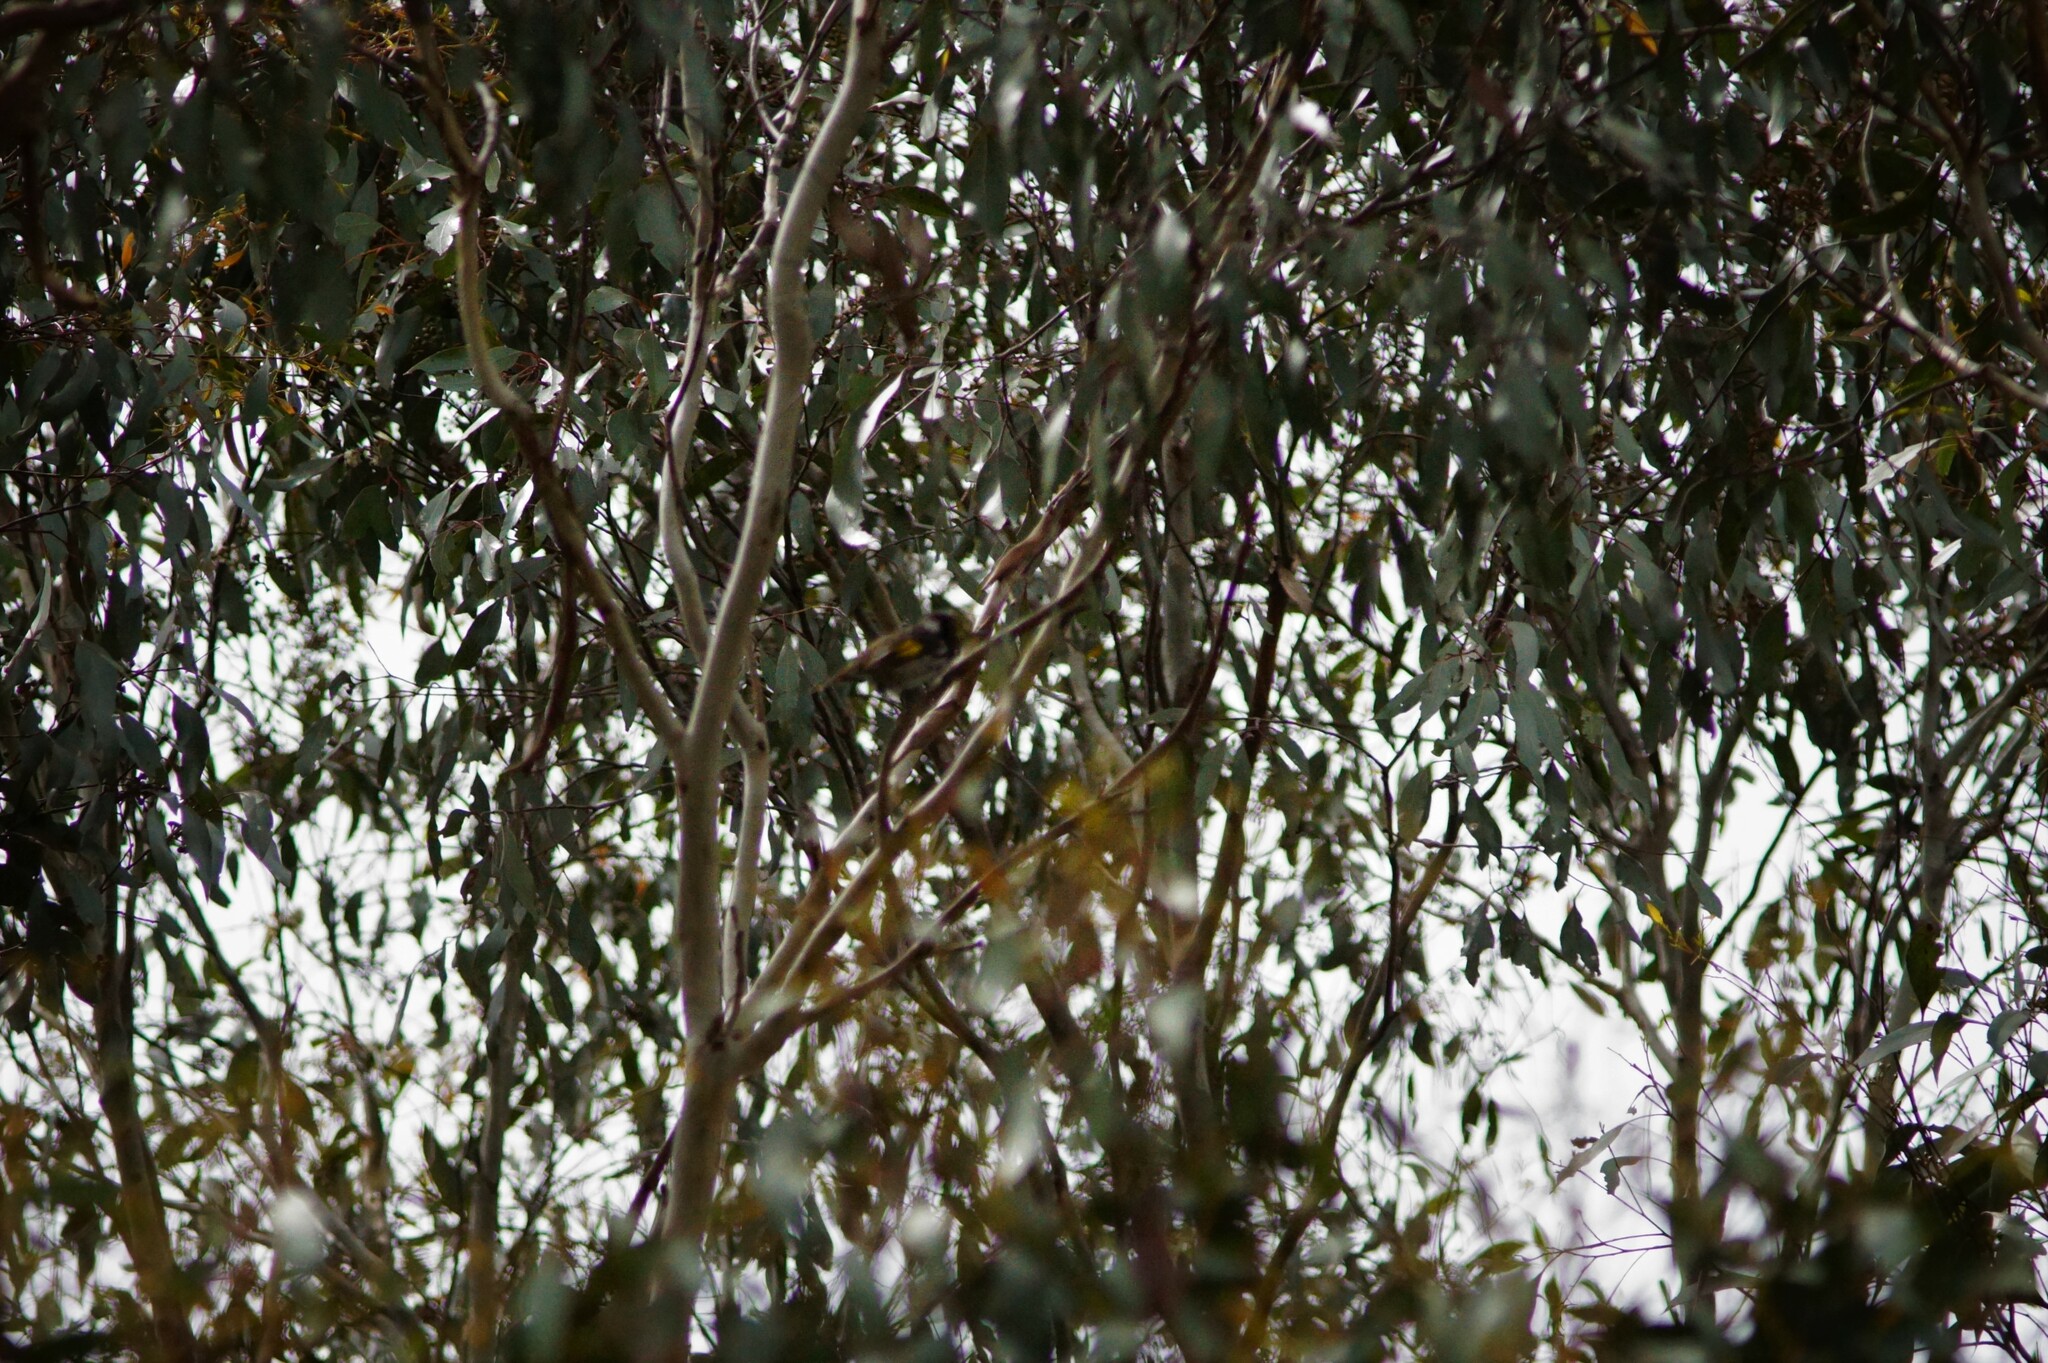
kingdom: Animalia
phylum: Chordata
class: Aves
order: Passeriformes
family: Meliphagidae
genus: Phylidonyris
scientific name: Phylidonyris novaehollandiae
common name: New holland honeyeater
